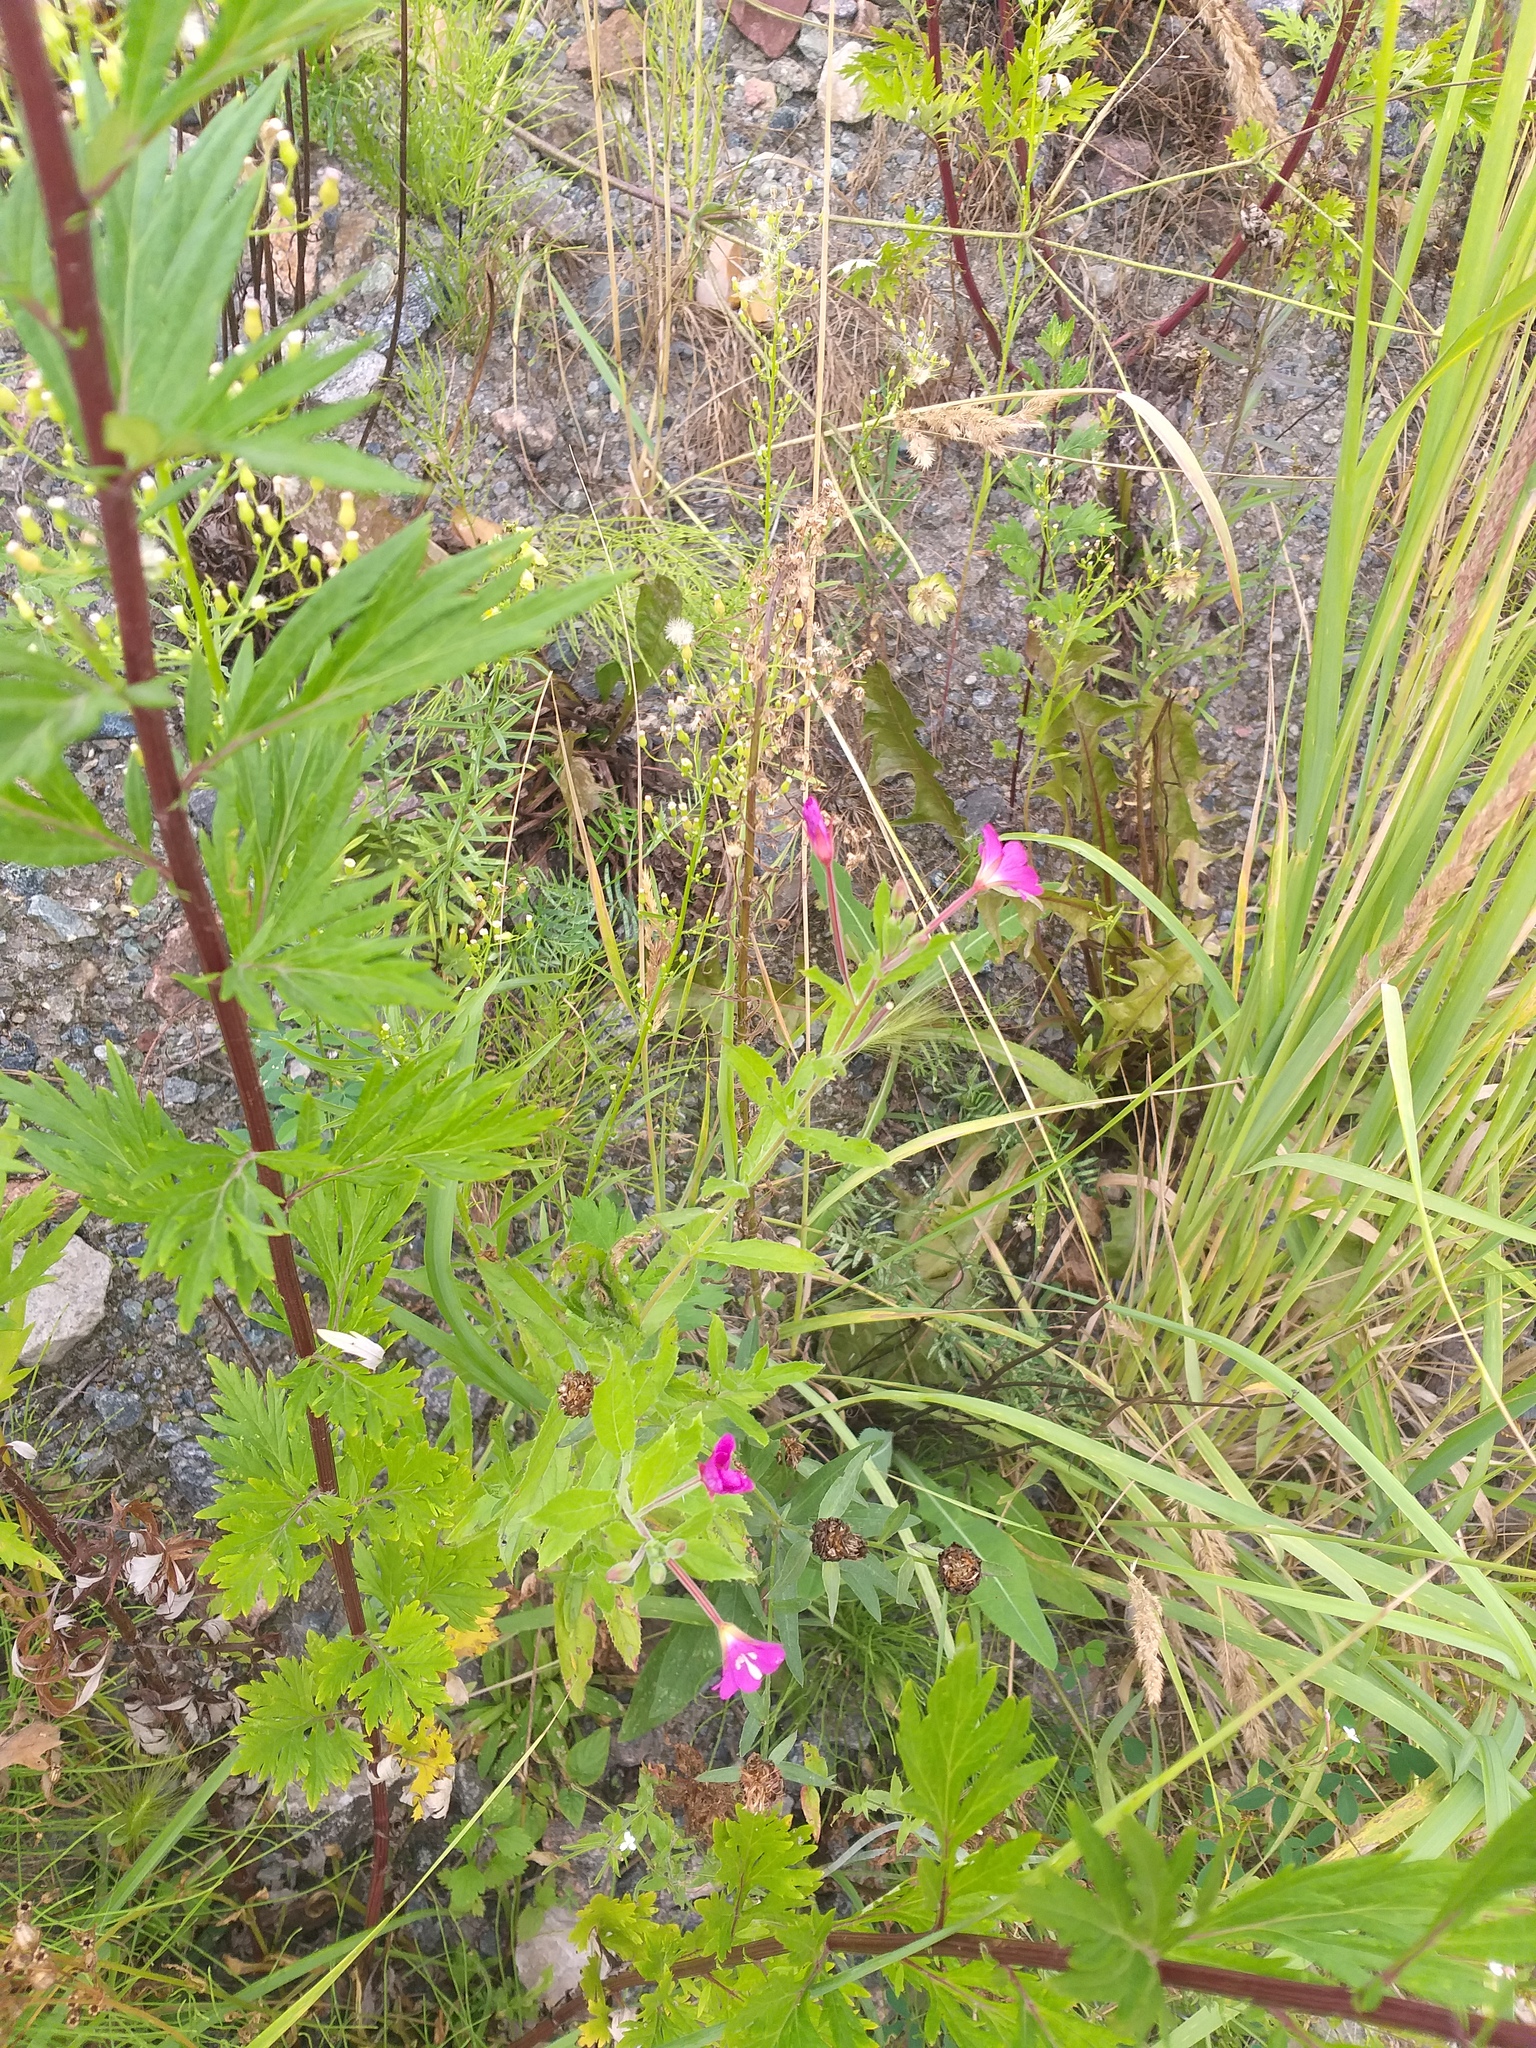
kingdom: Plantae
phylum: Tracheophyta
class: Magnoliopsida
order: Myrtales
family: Onagraceae
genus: Epilobium
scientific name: Epilobium hirsutum
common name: Great willowherb
